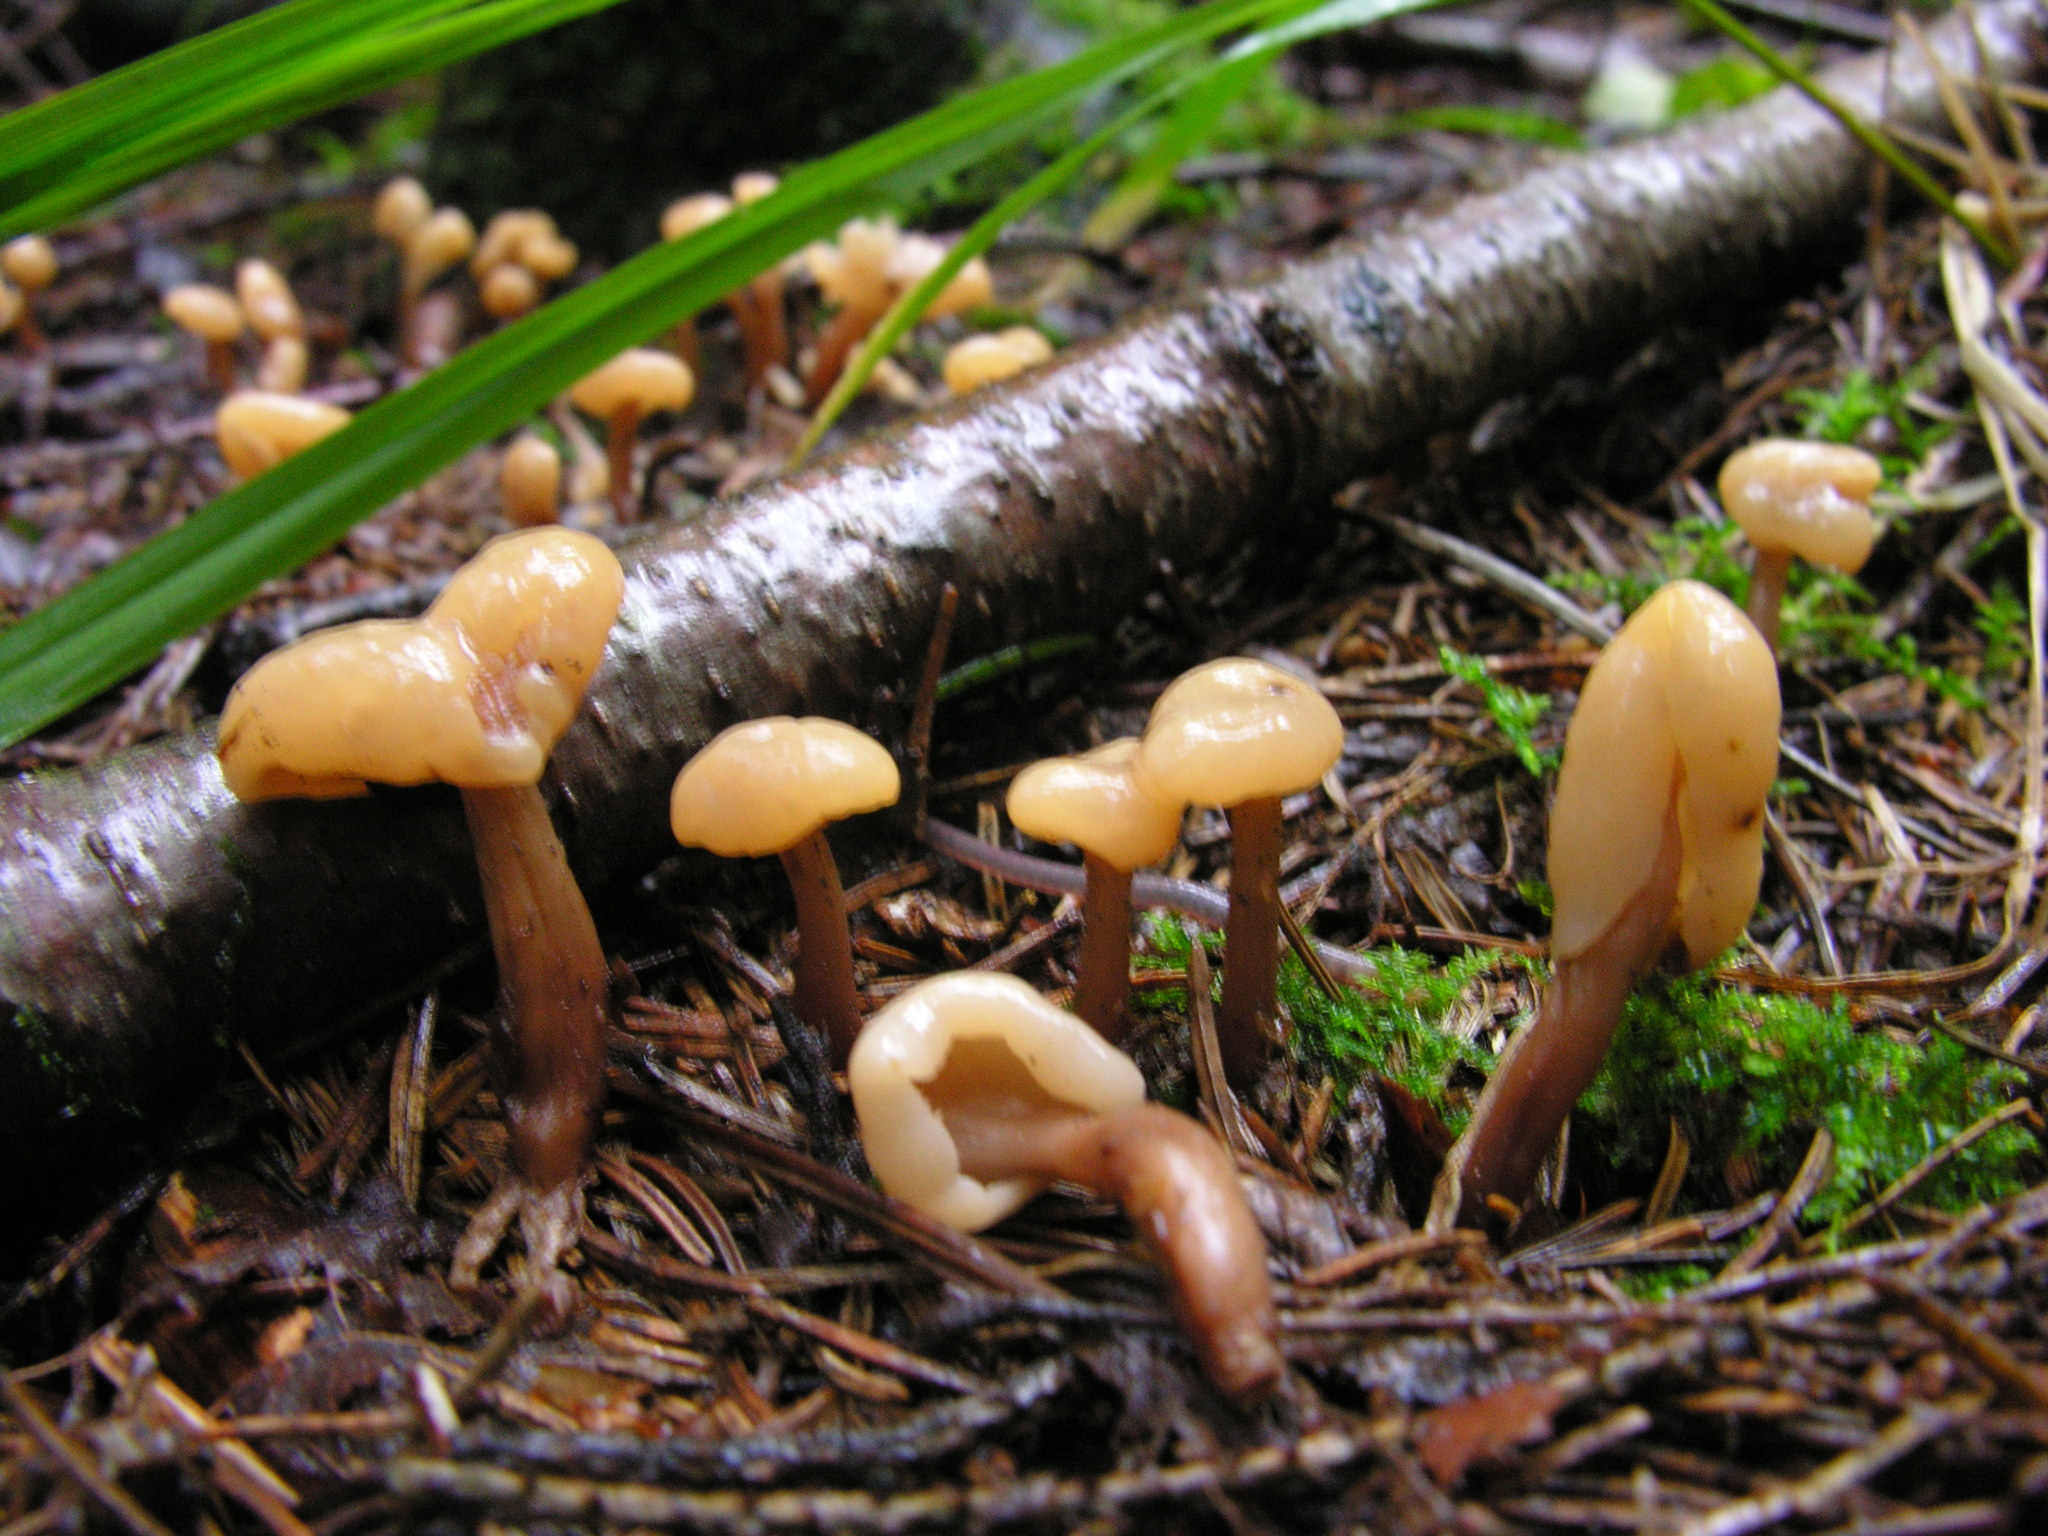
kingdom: Fungi
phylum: Ascomycota
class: Leotiomycetes
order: Rhytismatales
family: Cudoniaceae
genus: Cudonia
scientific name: Cudonia circinans
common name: Redleg jellybaby
